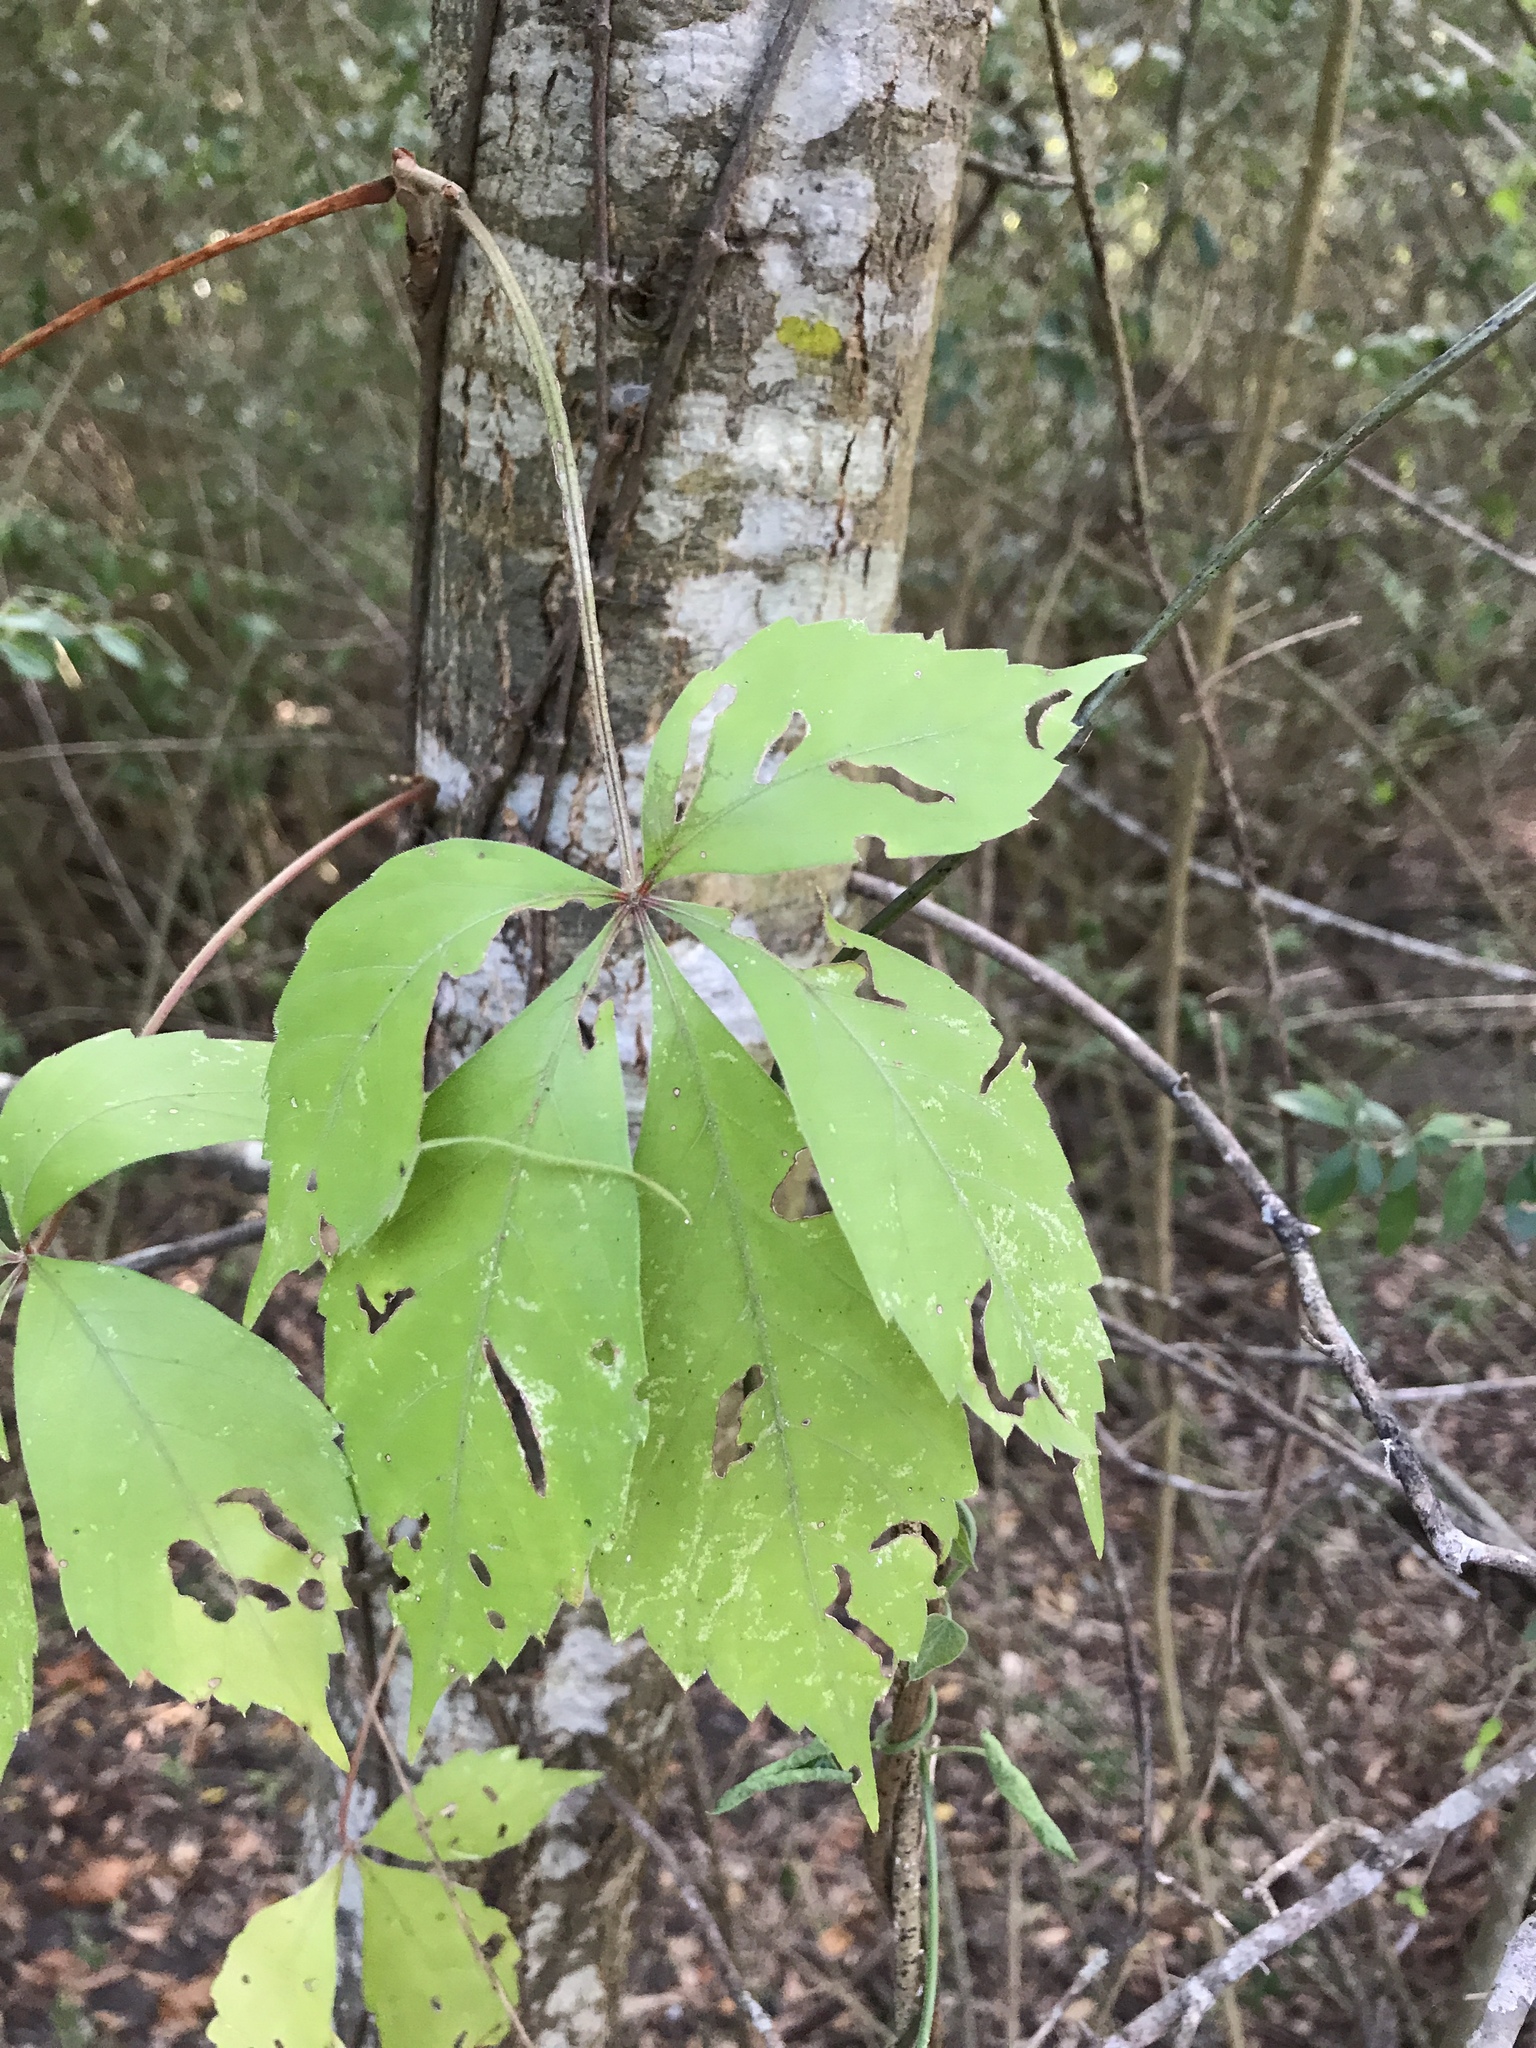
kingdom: Plantae
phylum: Tracheophyta
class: Magnoliopsida
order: Vitales
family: Vitaceae
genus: Parthenocissus
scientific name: Parthenocissus quinquefolia
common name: Virginia-creeper
